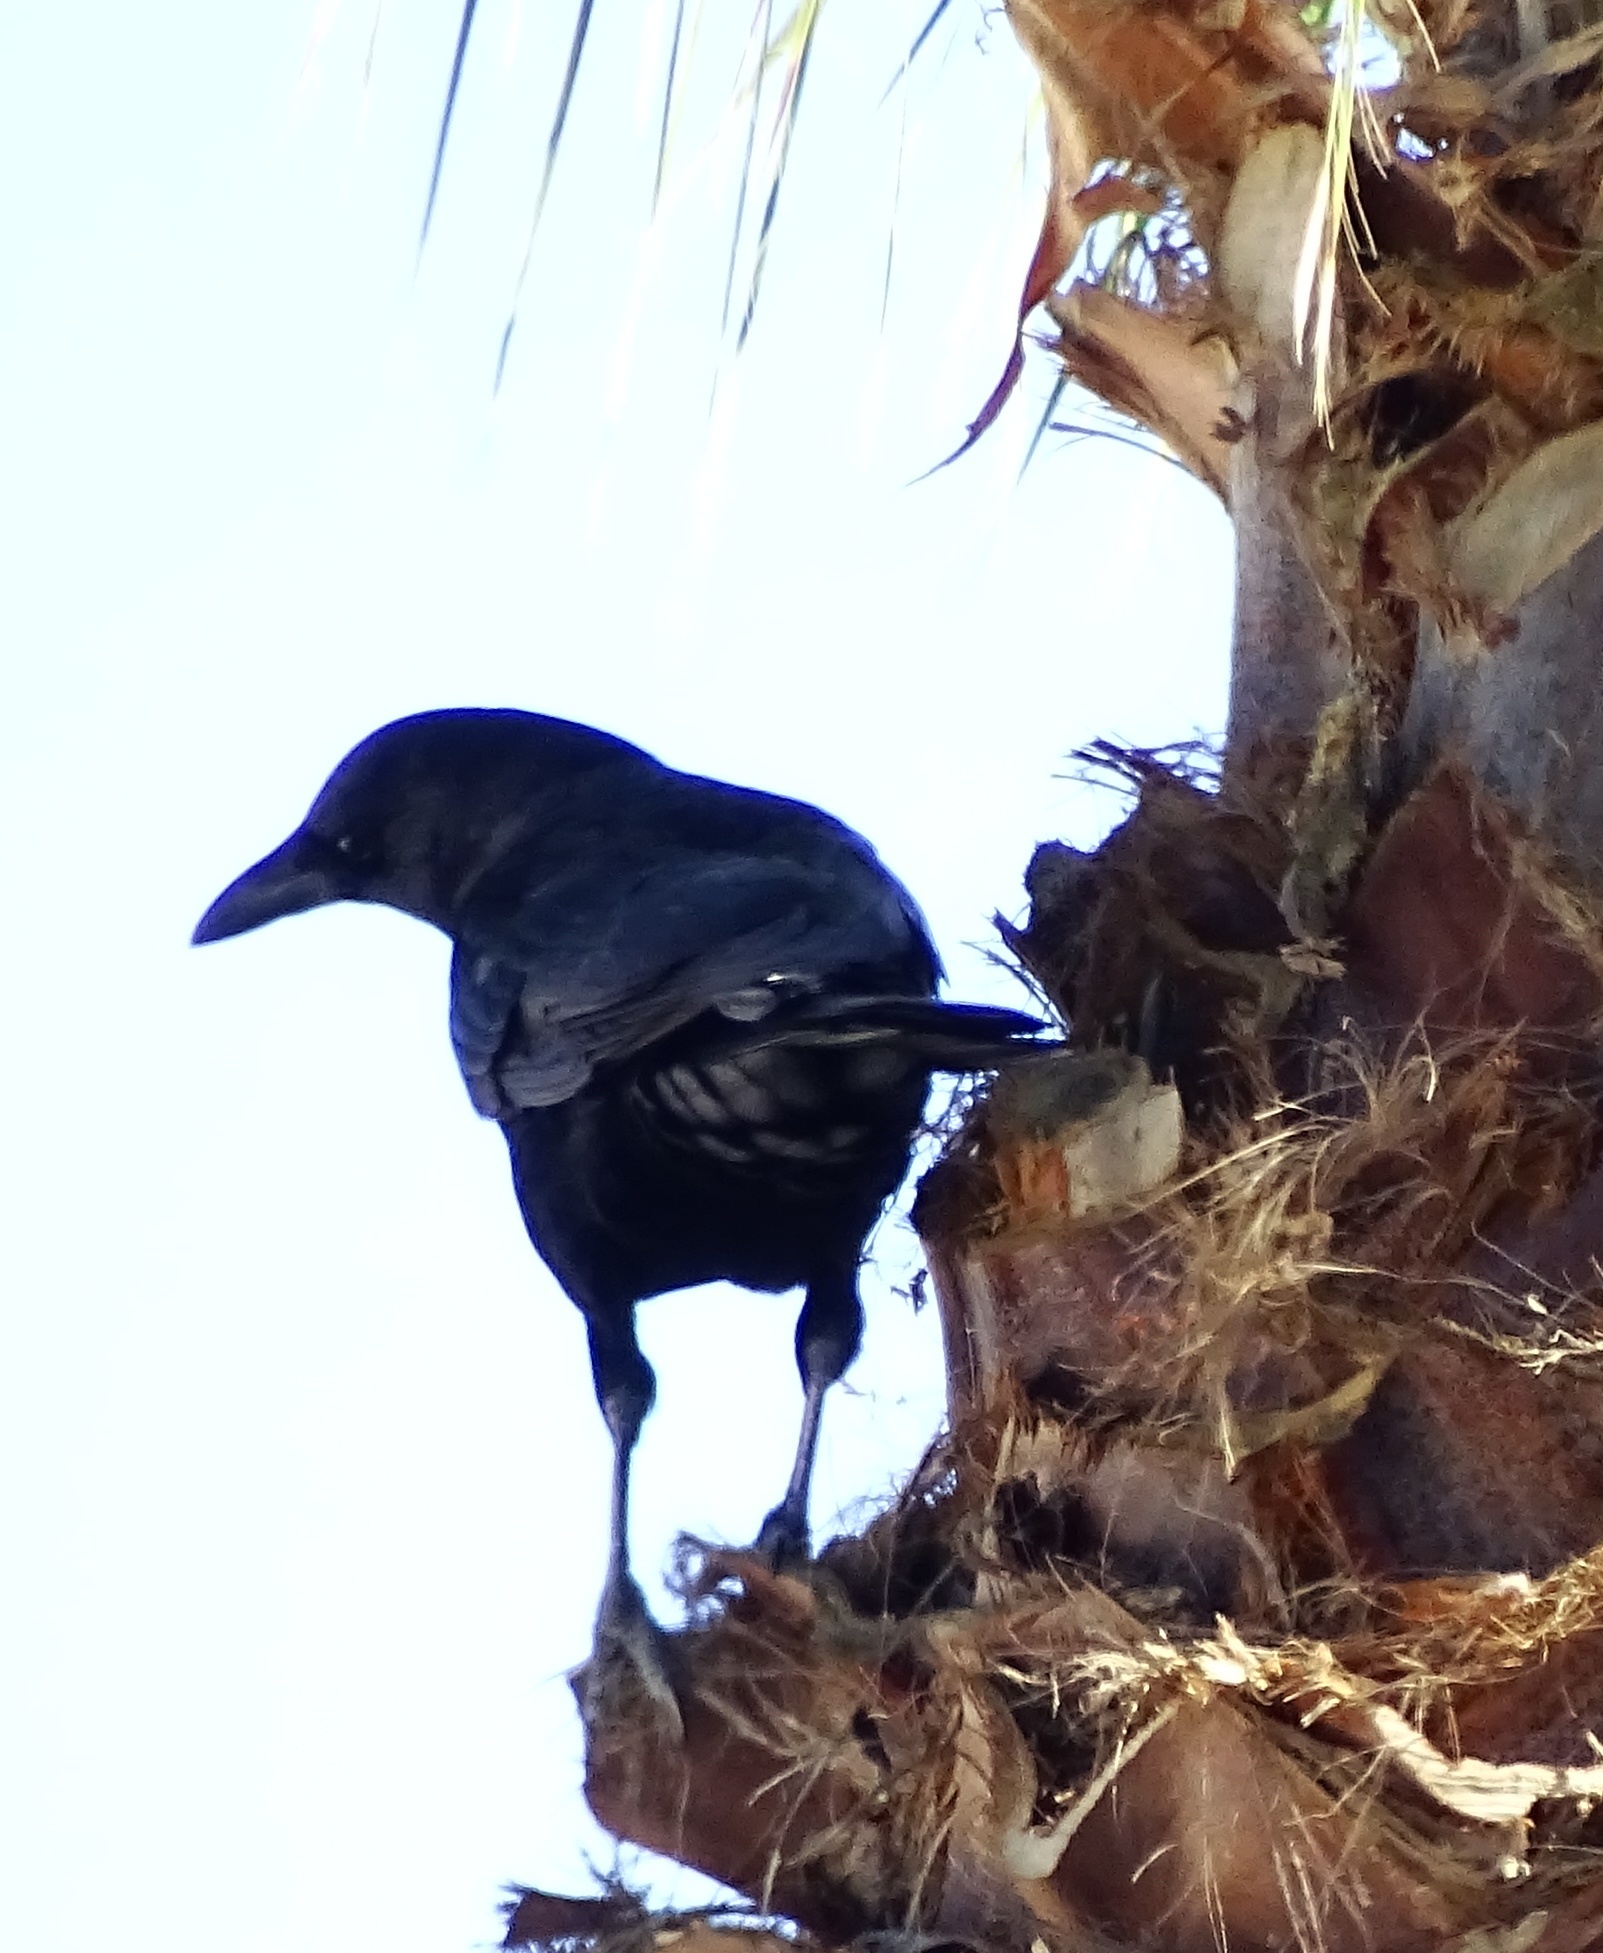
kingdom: Animalia
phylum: Chordata
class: Aves
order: Passeriformes
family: Corvidae
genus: Corvus
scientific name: Corvus brachyrhynchos
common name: American crow
